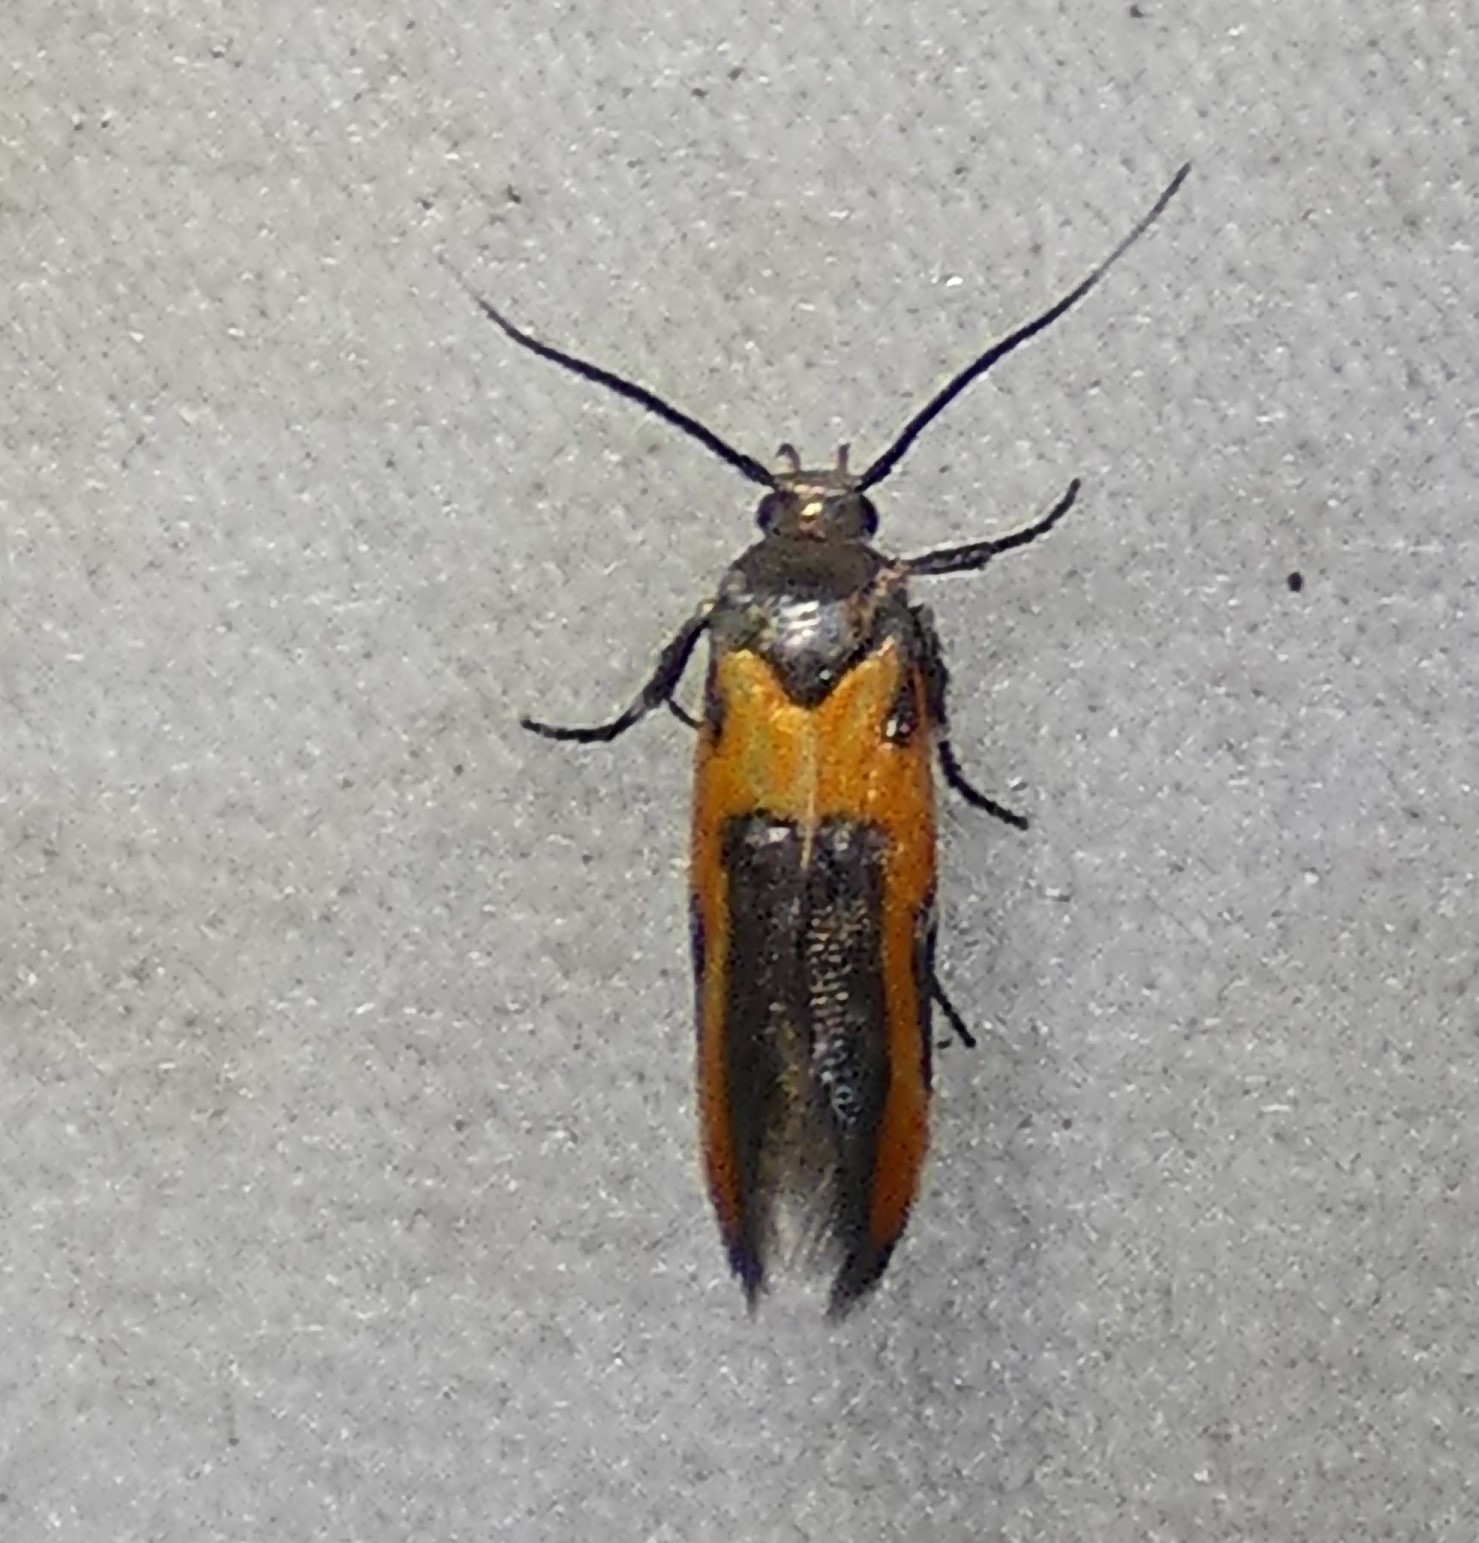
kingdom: Animalia
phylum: Arthropoda
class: Insecta
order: Lepidoptera
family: Cosmopterigidae
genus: Euclemensia
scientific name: Euclemensia bassettella
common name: Kermes scale moth
